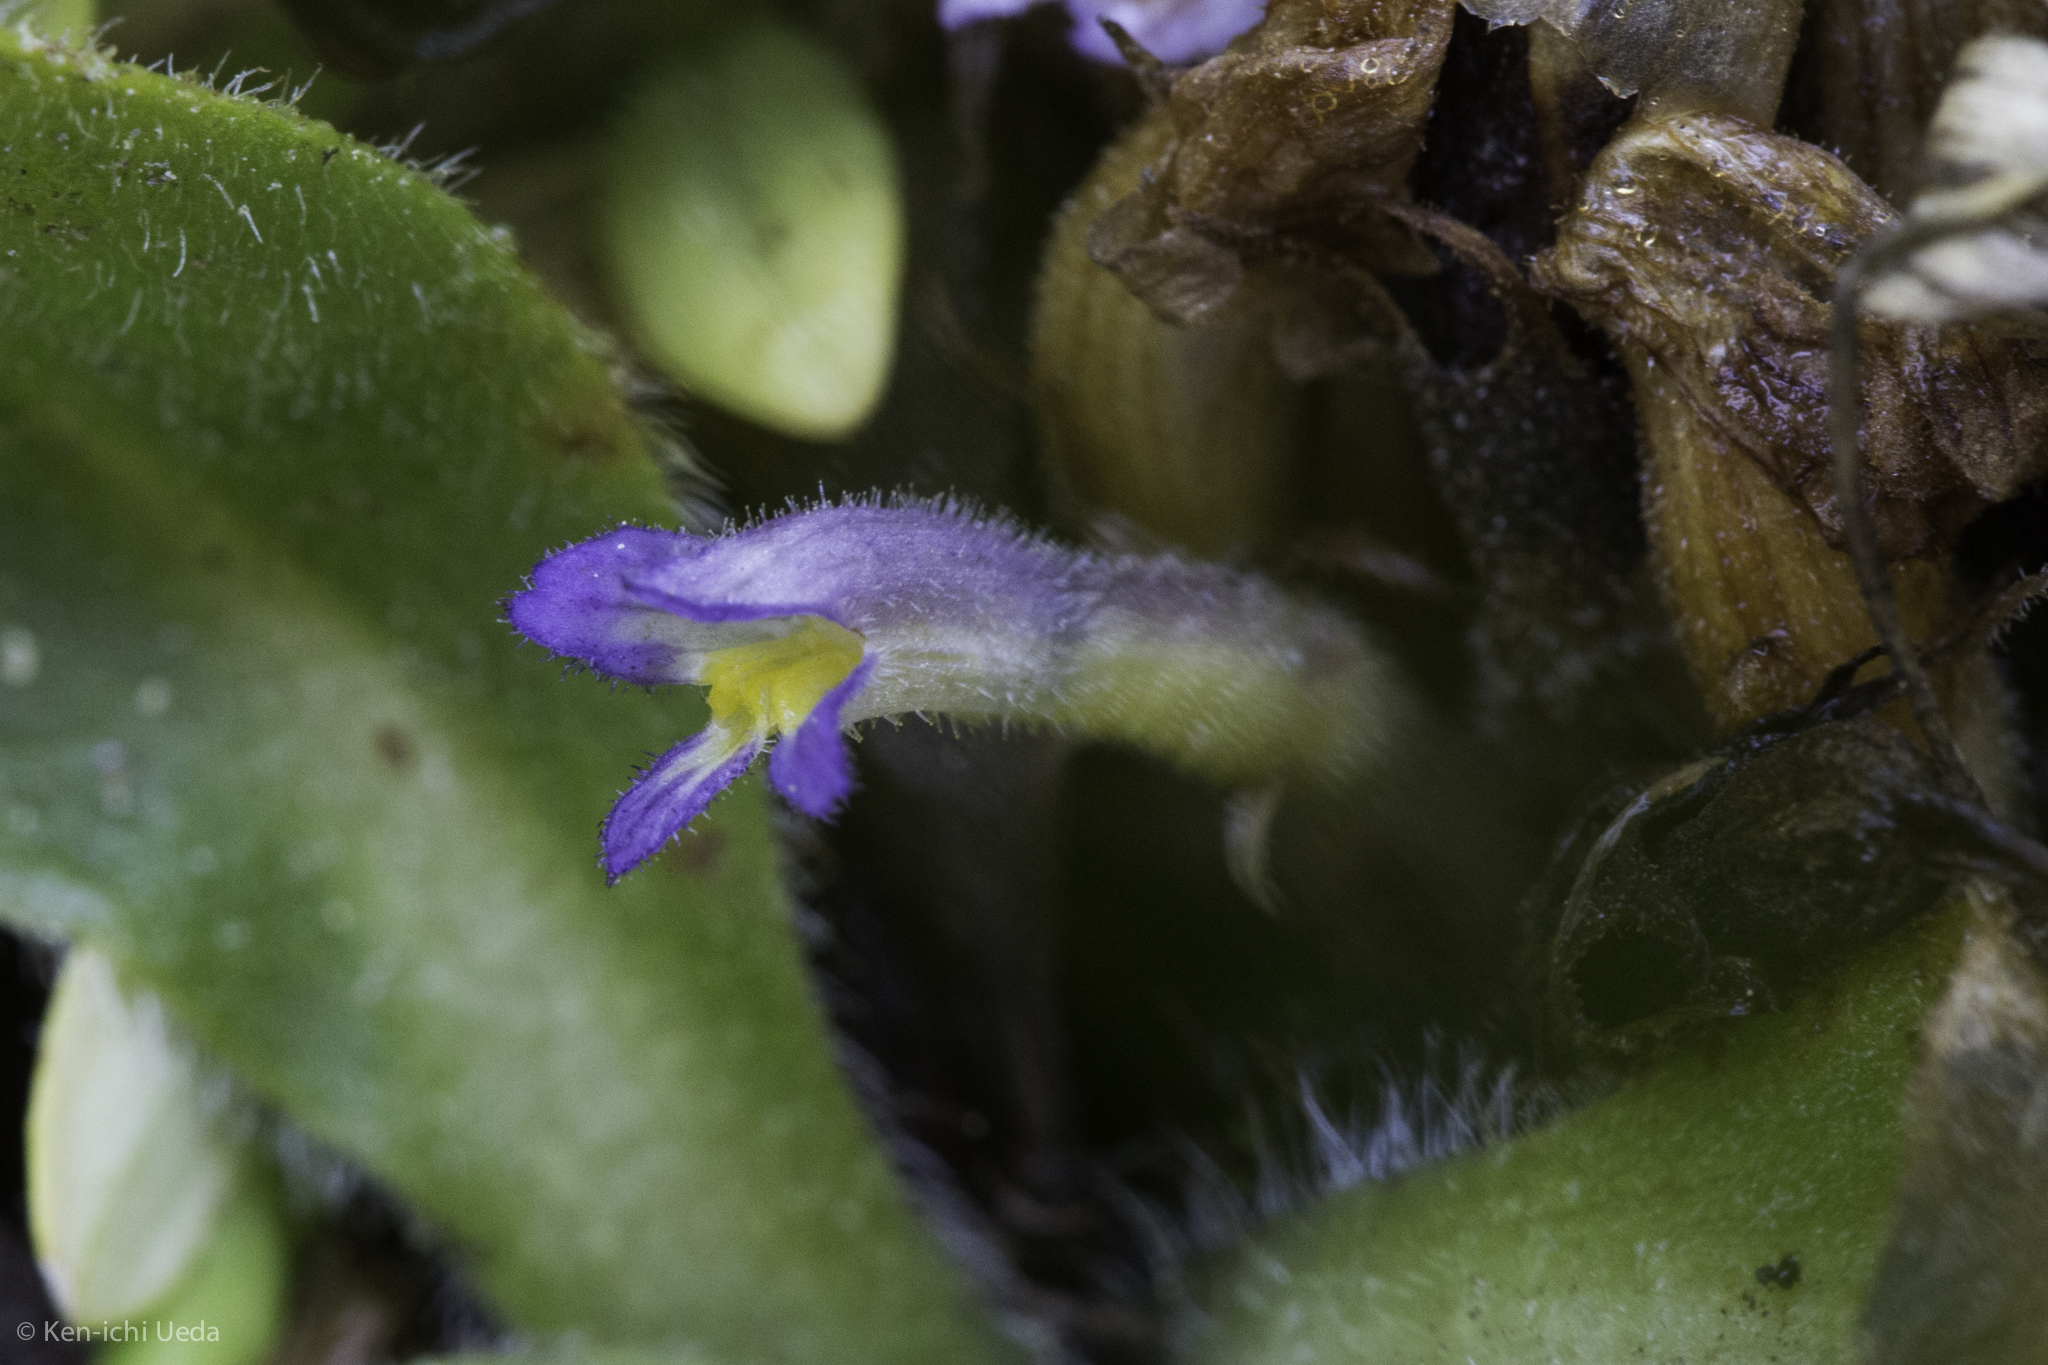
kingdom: Plantae
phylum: Tracheophyta
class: Magnoliopsida
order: Lamiales
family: Orobanchaceae
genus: Aphyllon
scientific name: Aphyllon uniflorum
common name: One-flowered broomrape
